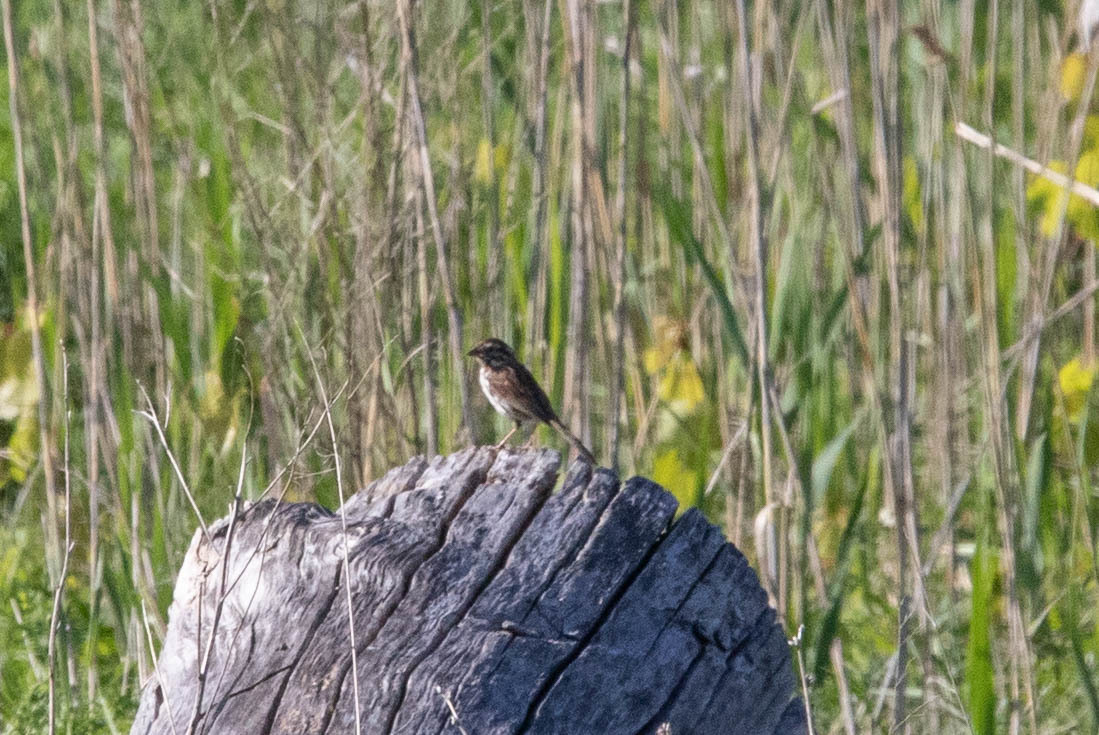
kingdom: Animalia
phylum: Chordata
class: Aves
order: Passeriformes
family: Passerellidae
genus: Melospiza
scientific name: Melospiza melodia
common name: Song sparrow
